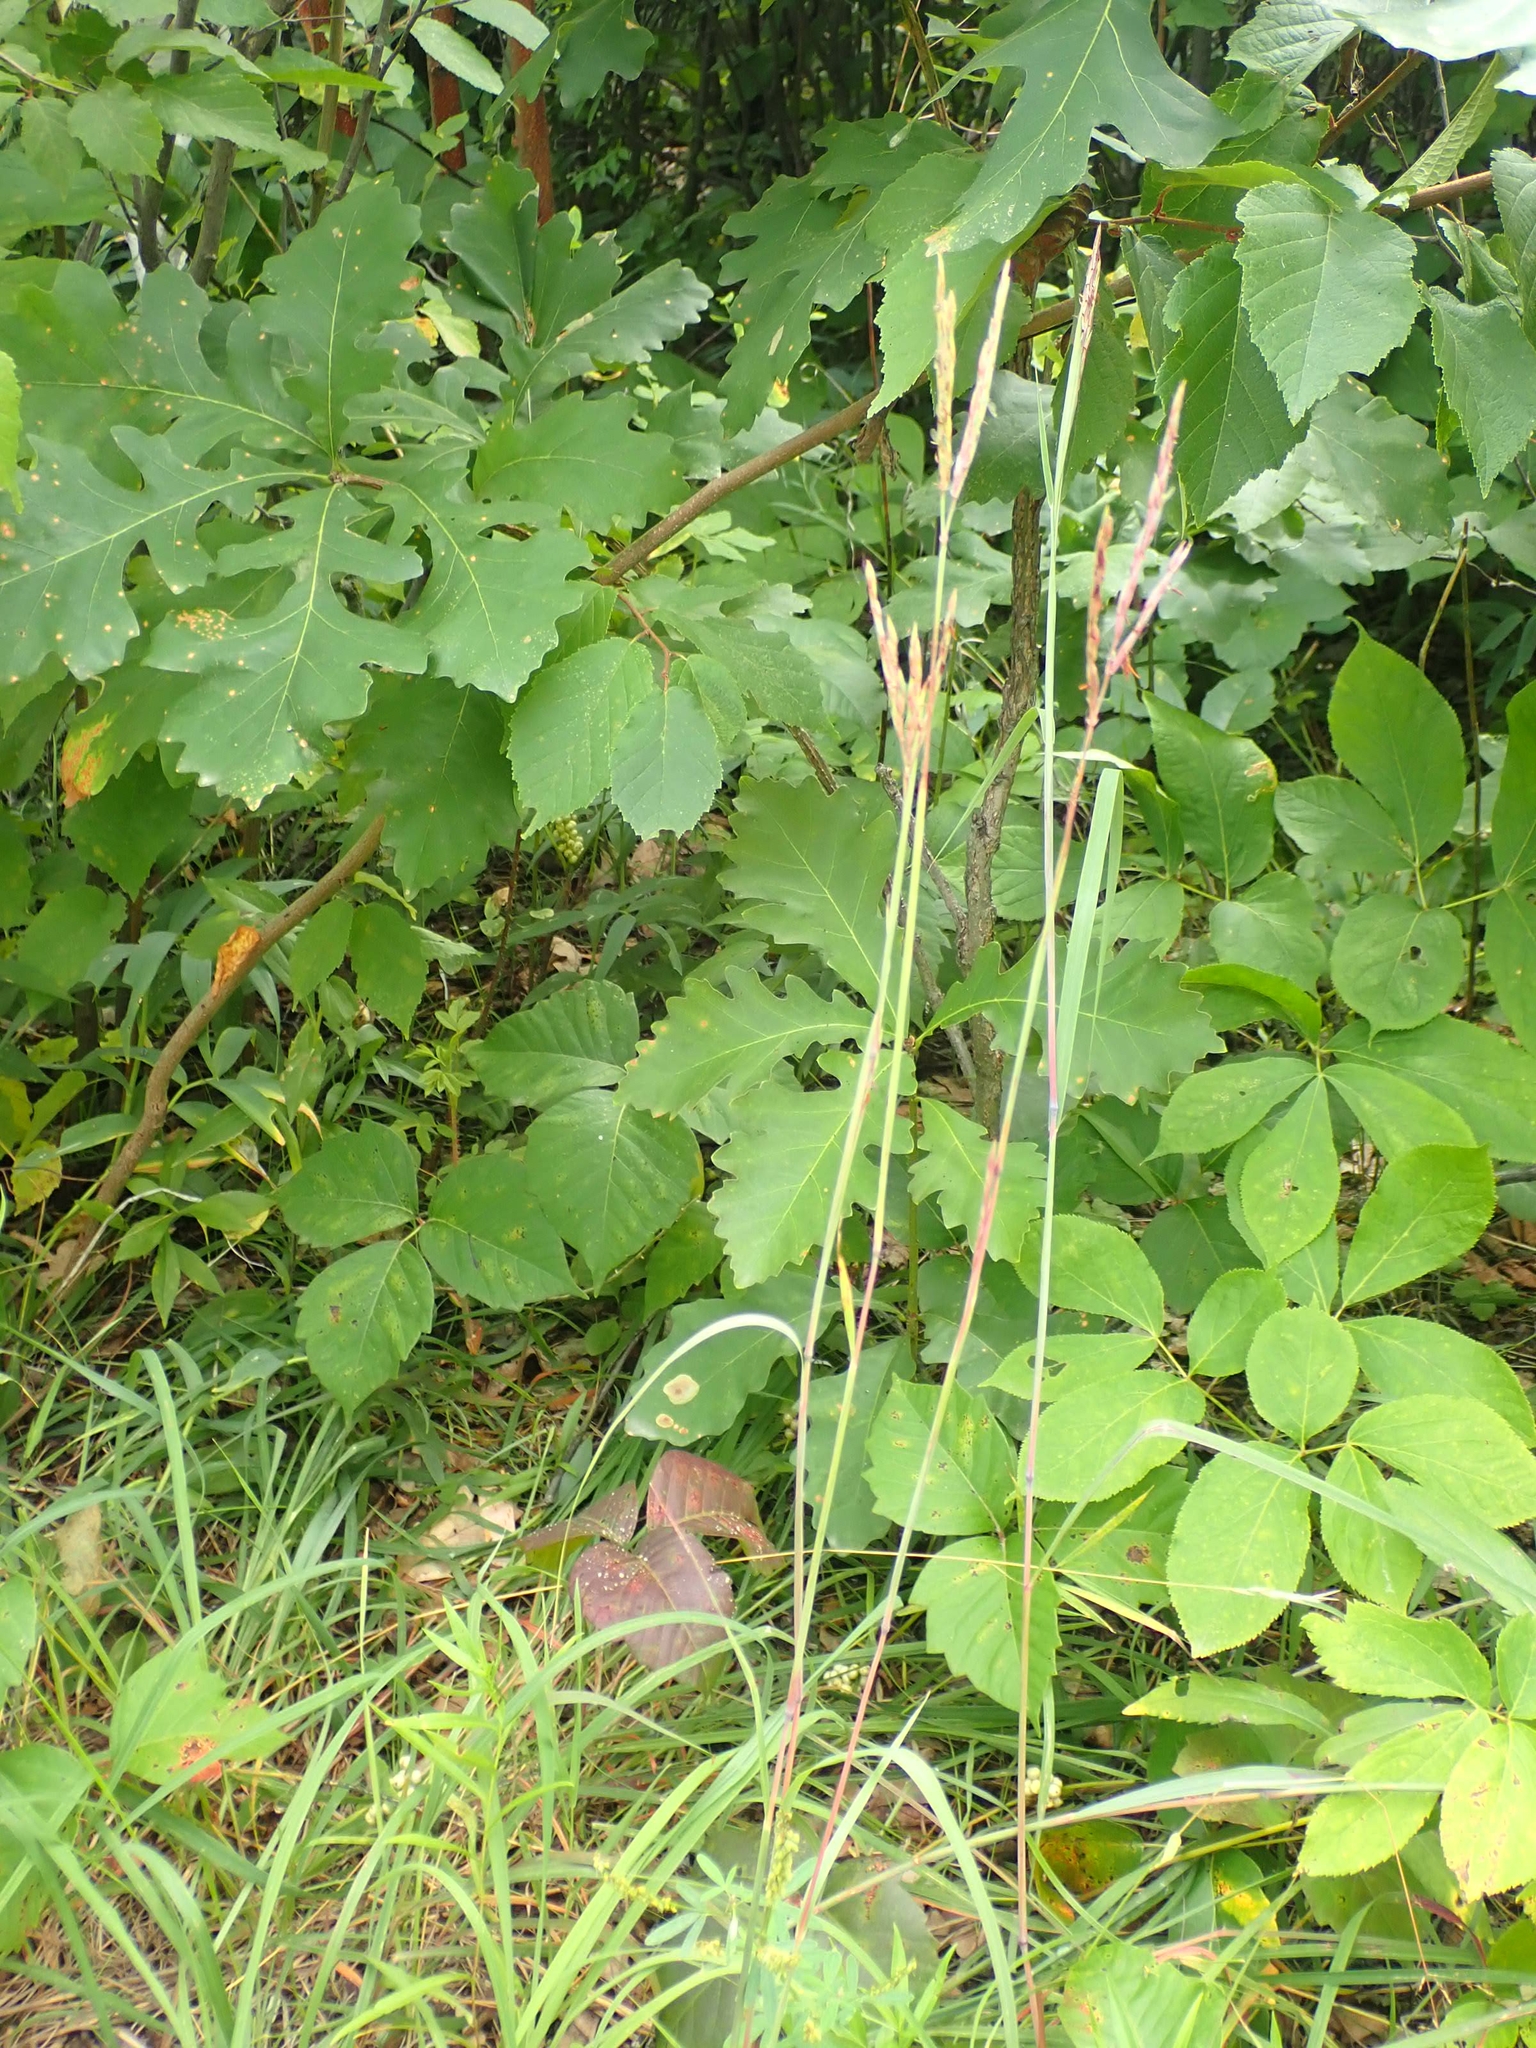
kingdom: Plantae
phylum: Tracheophyta
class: Liliopsida
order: Poales
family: Poaceae
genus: Andropogon
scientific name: Andropogon gerardi
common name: Big bluestem
